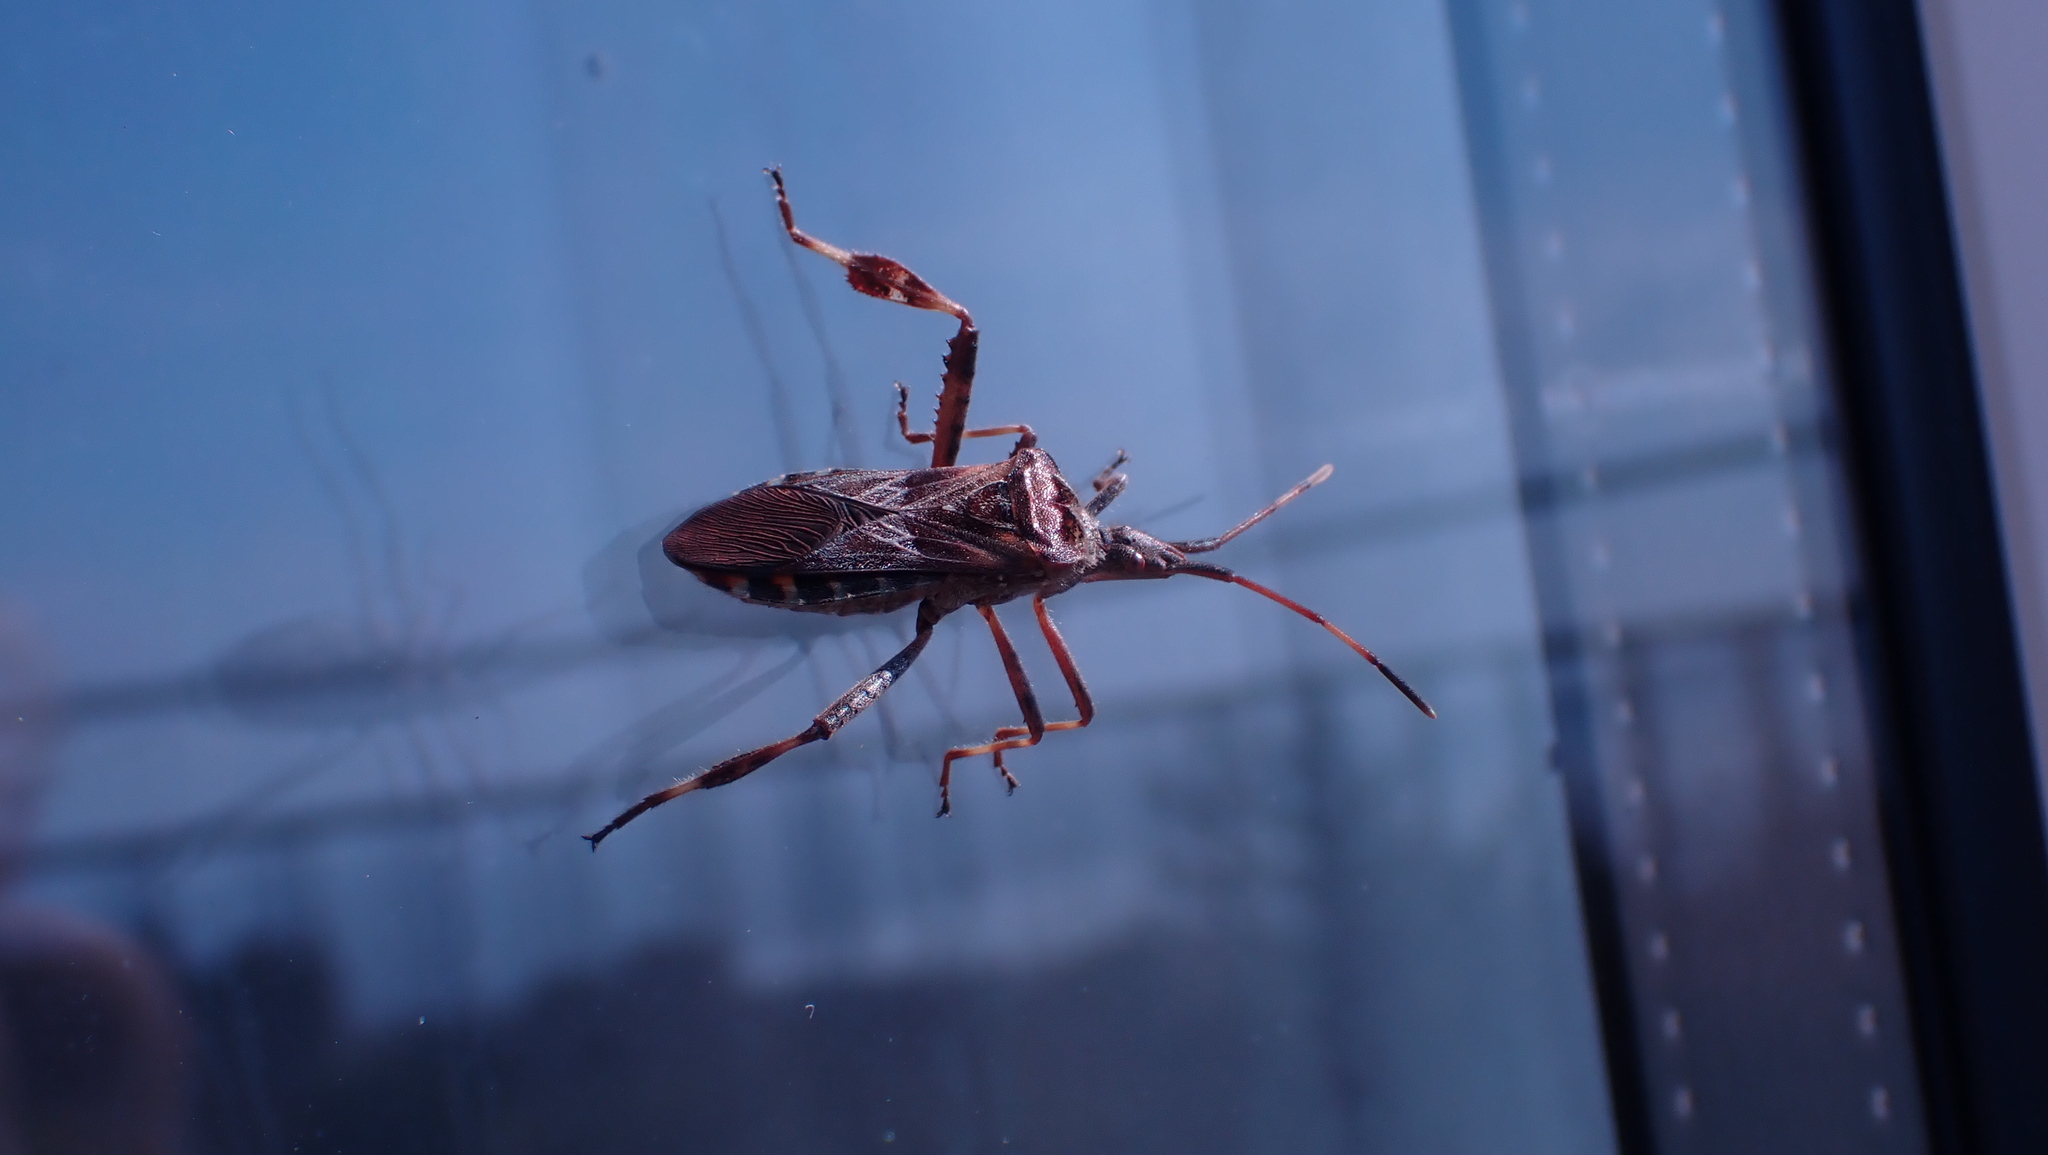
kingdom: Animalia
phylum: Arthropoda
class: Insecta
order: Hemiptera
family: Coreidae
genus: Leptoglossus
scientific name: Leptoglossus occidentalis
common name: Western conifer-seed bug
